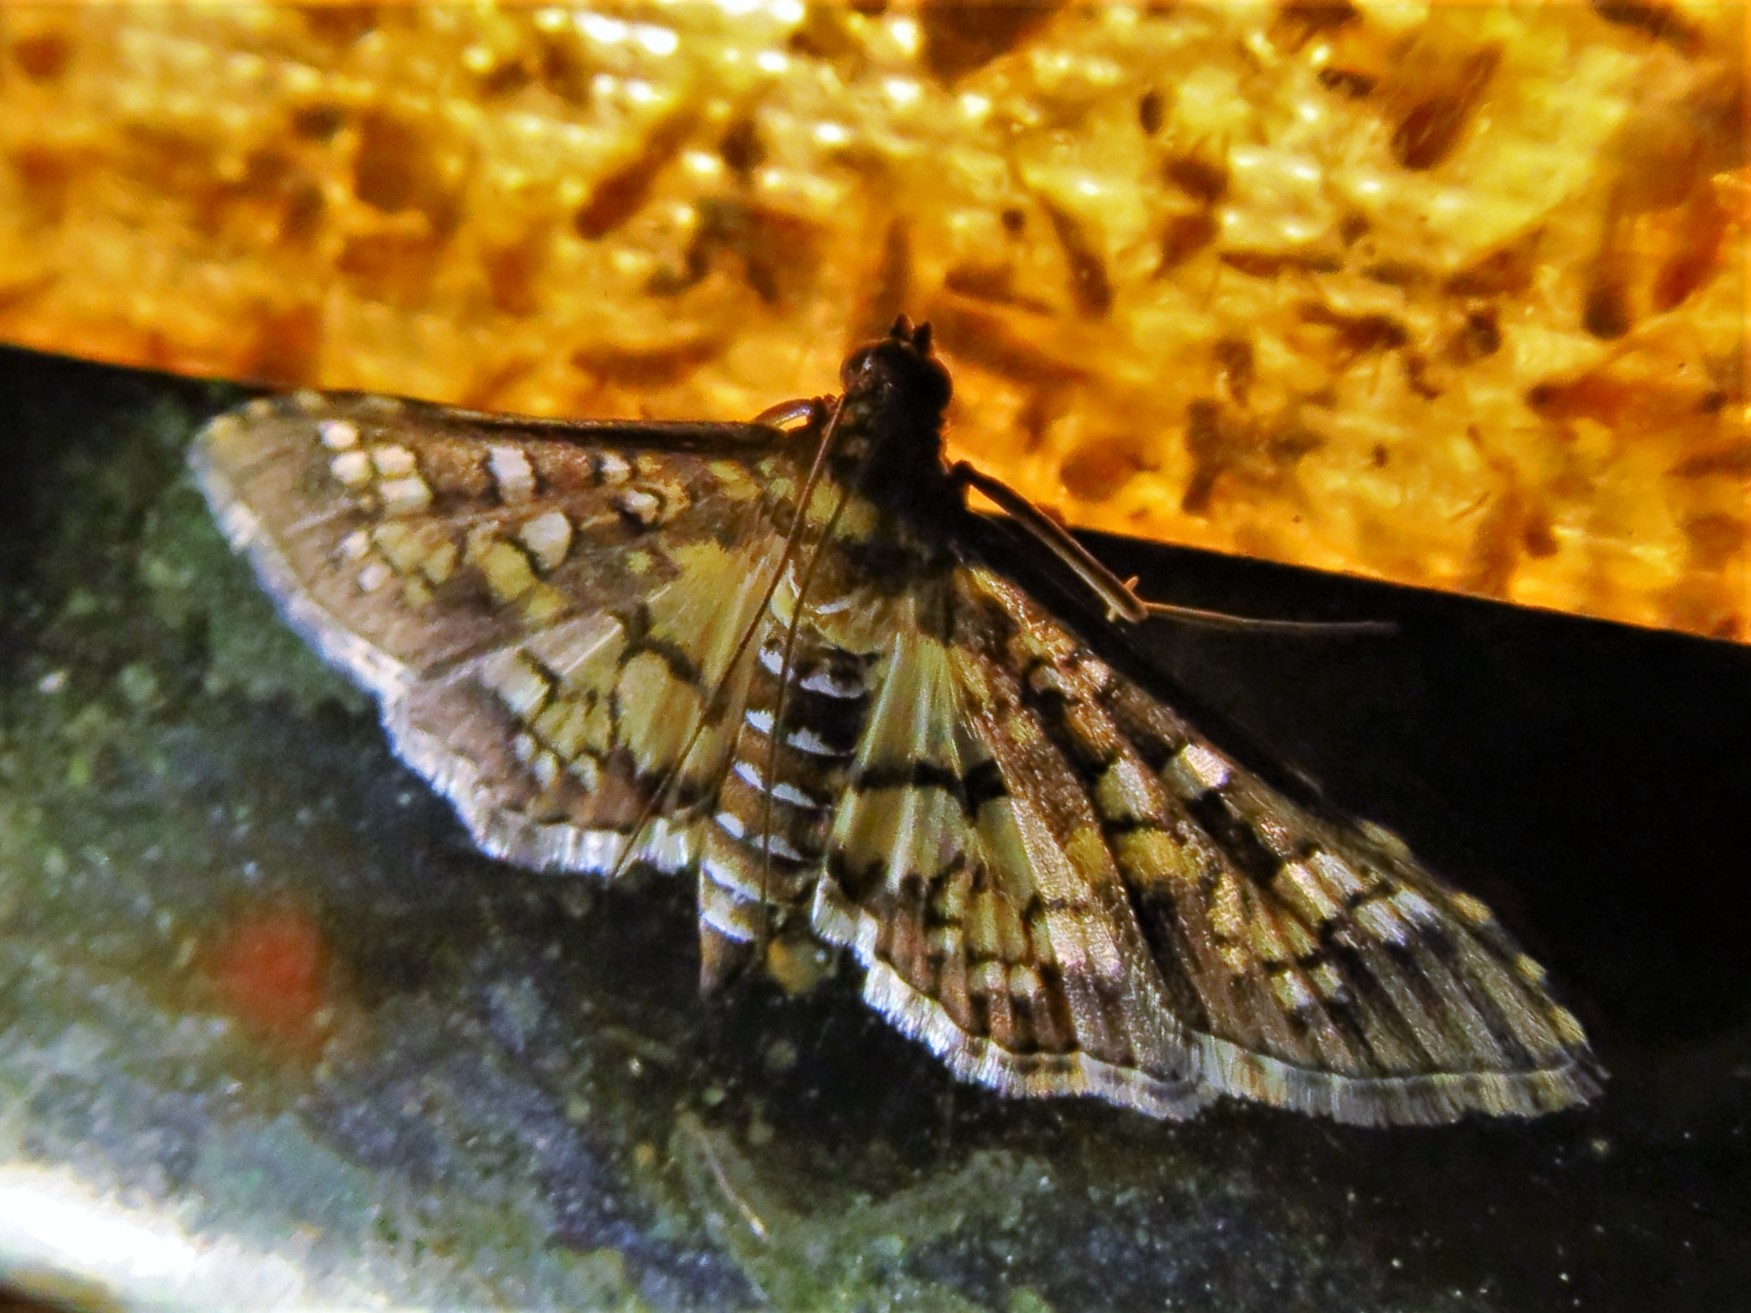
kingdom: Animalia
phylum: Arthropoda
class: Insecta
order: Lepidoptera
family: Crambidae
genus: Samea
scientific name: Samea ecclesialis
